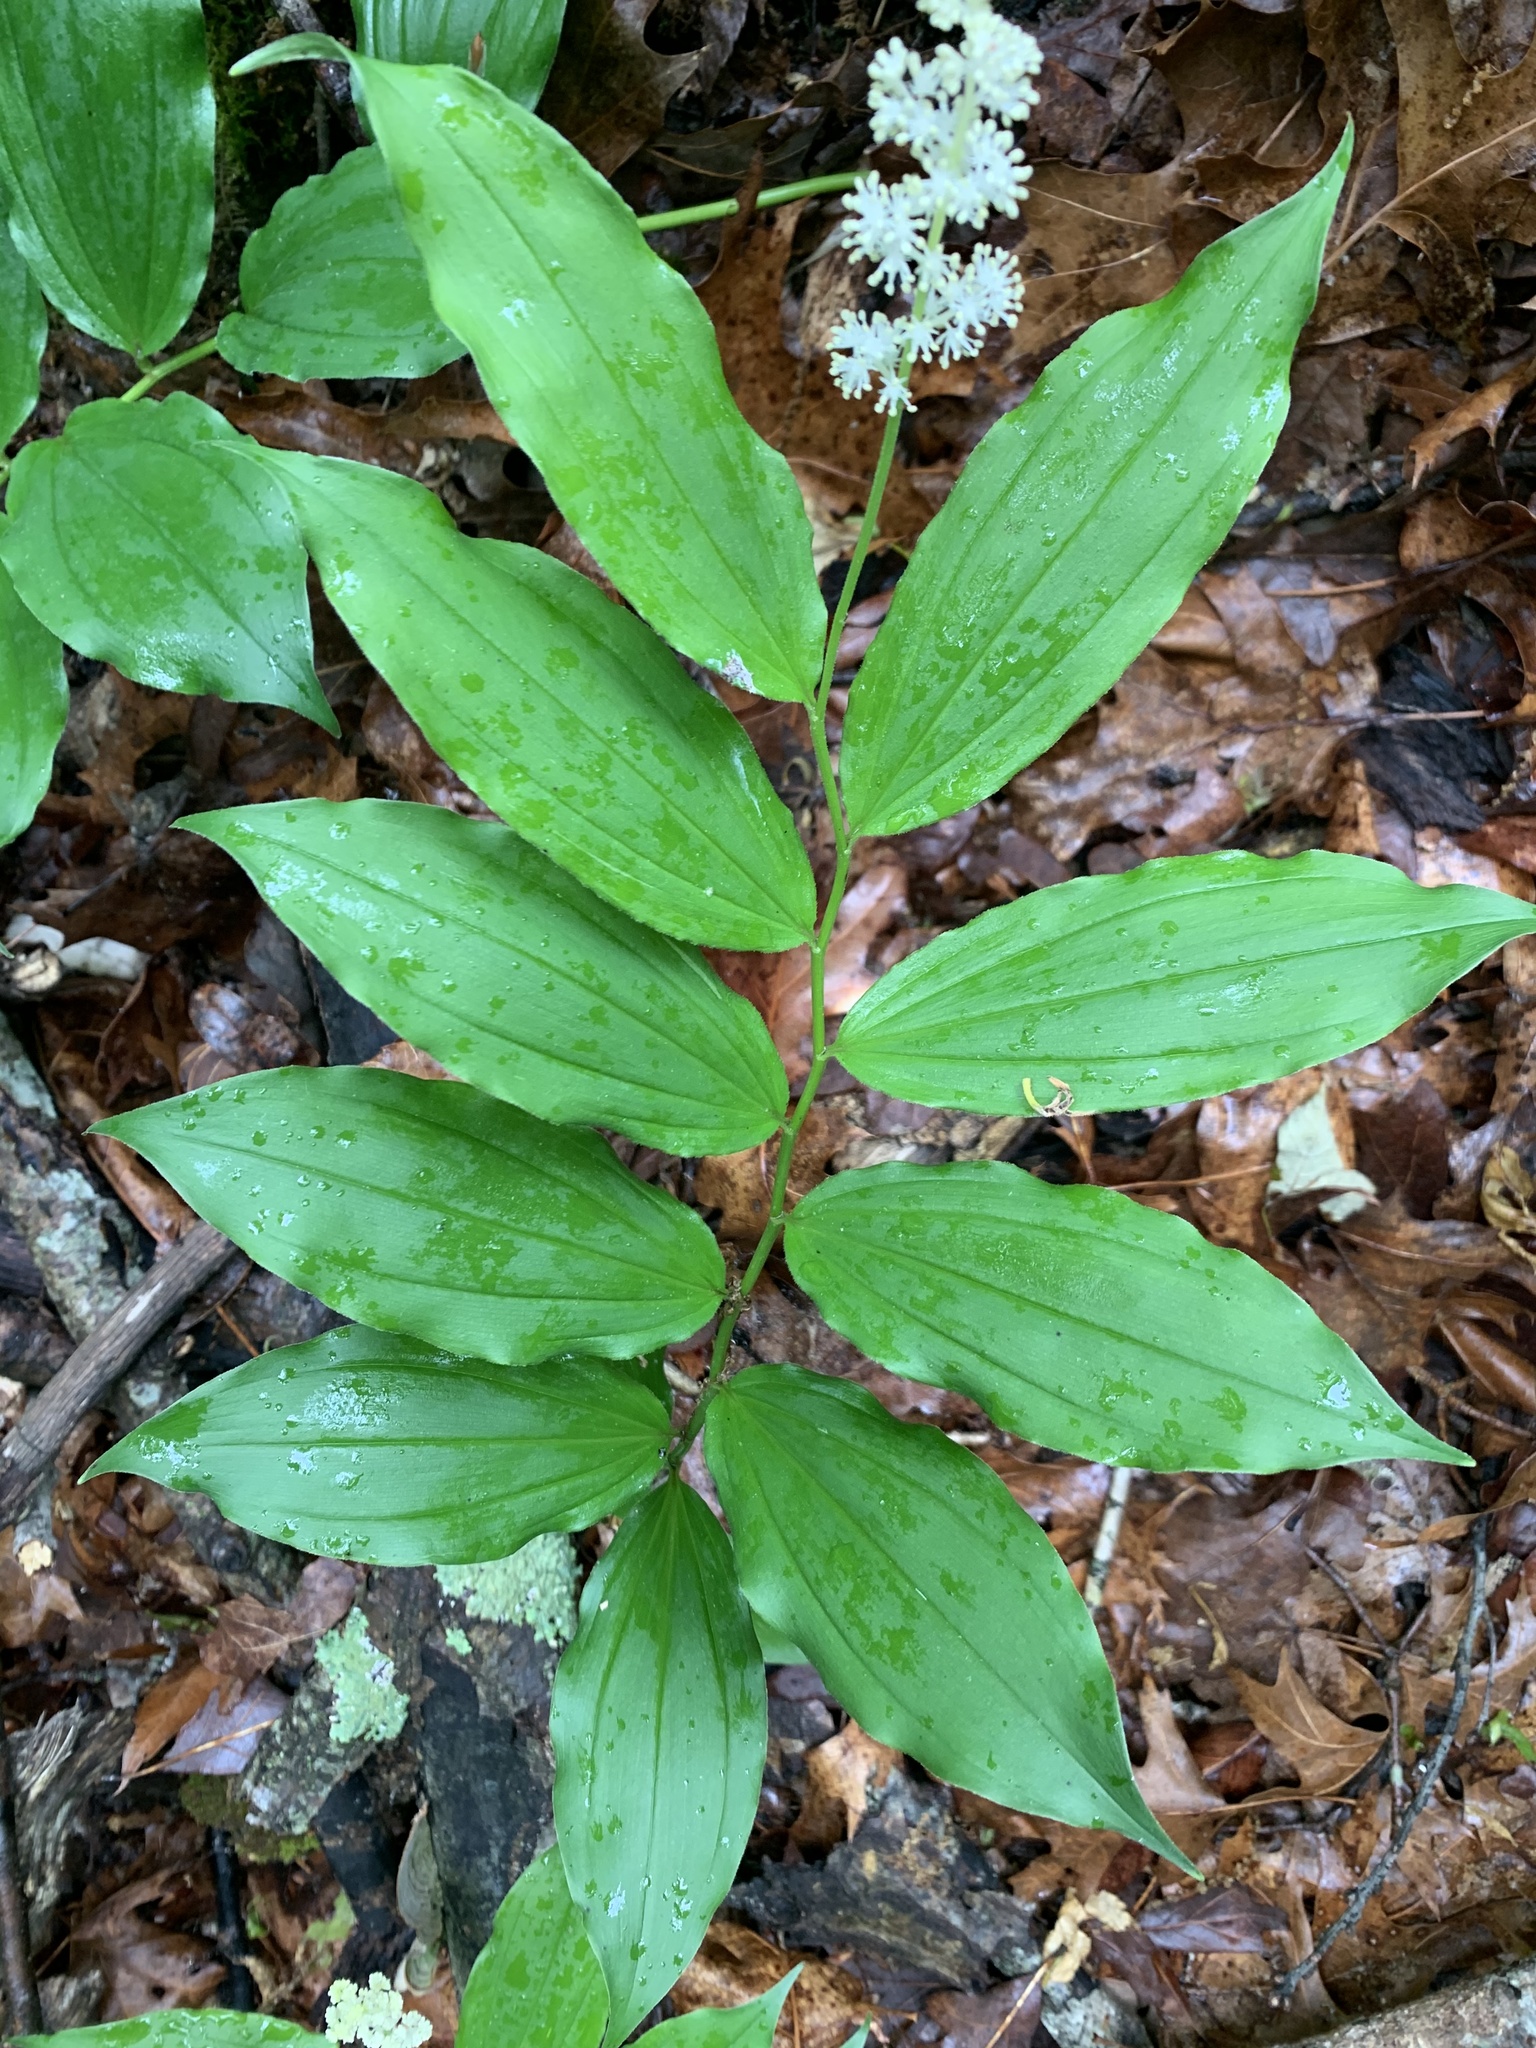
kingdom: Plantae
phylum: Tracheophyta
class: Liliopsida
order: Asparagales
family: Asparagaceae
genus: Maianthemum
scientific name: Maianthemum racemosum
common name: False spikenard
